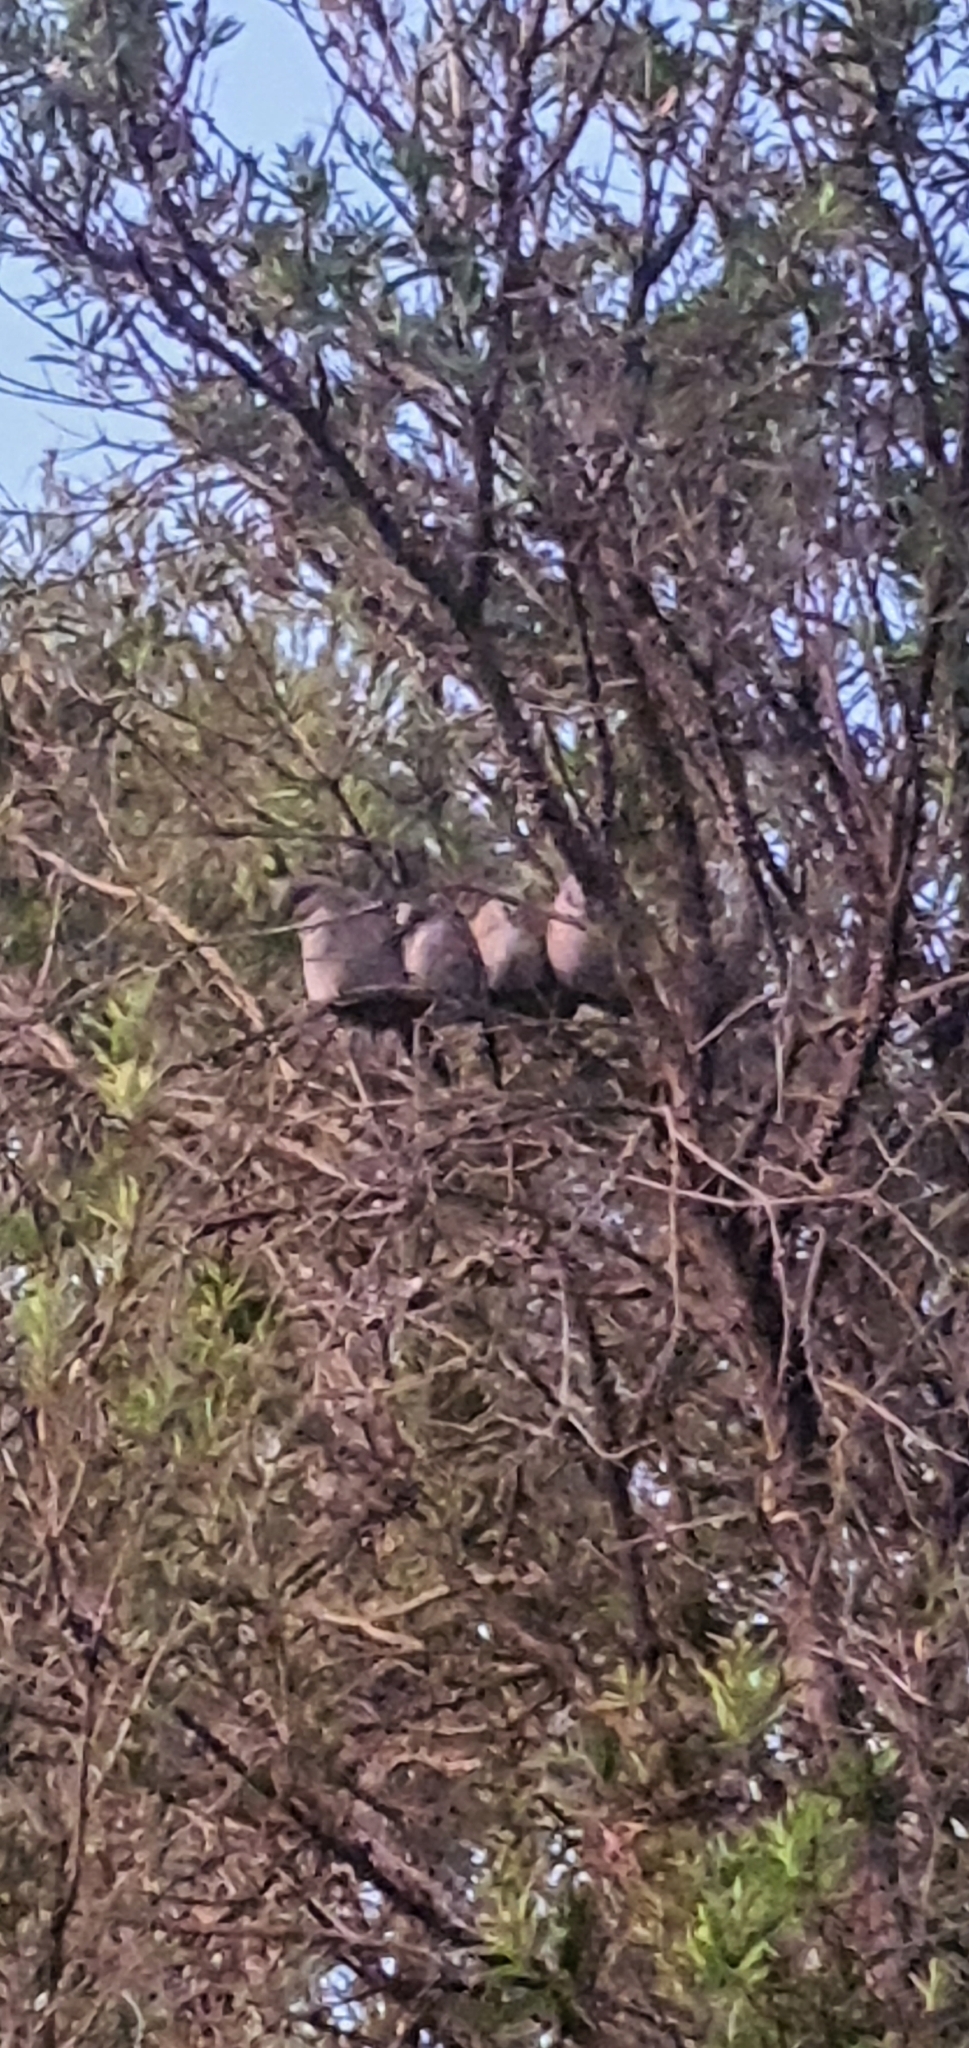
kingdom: Animalia
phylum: Chordata
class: Aves
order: Columbiformes
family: Columbidae
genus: Ocyphaps
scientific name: Ocyphaps lophotes
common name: Crested pigeon
